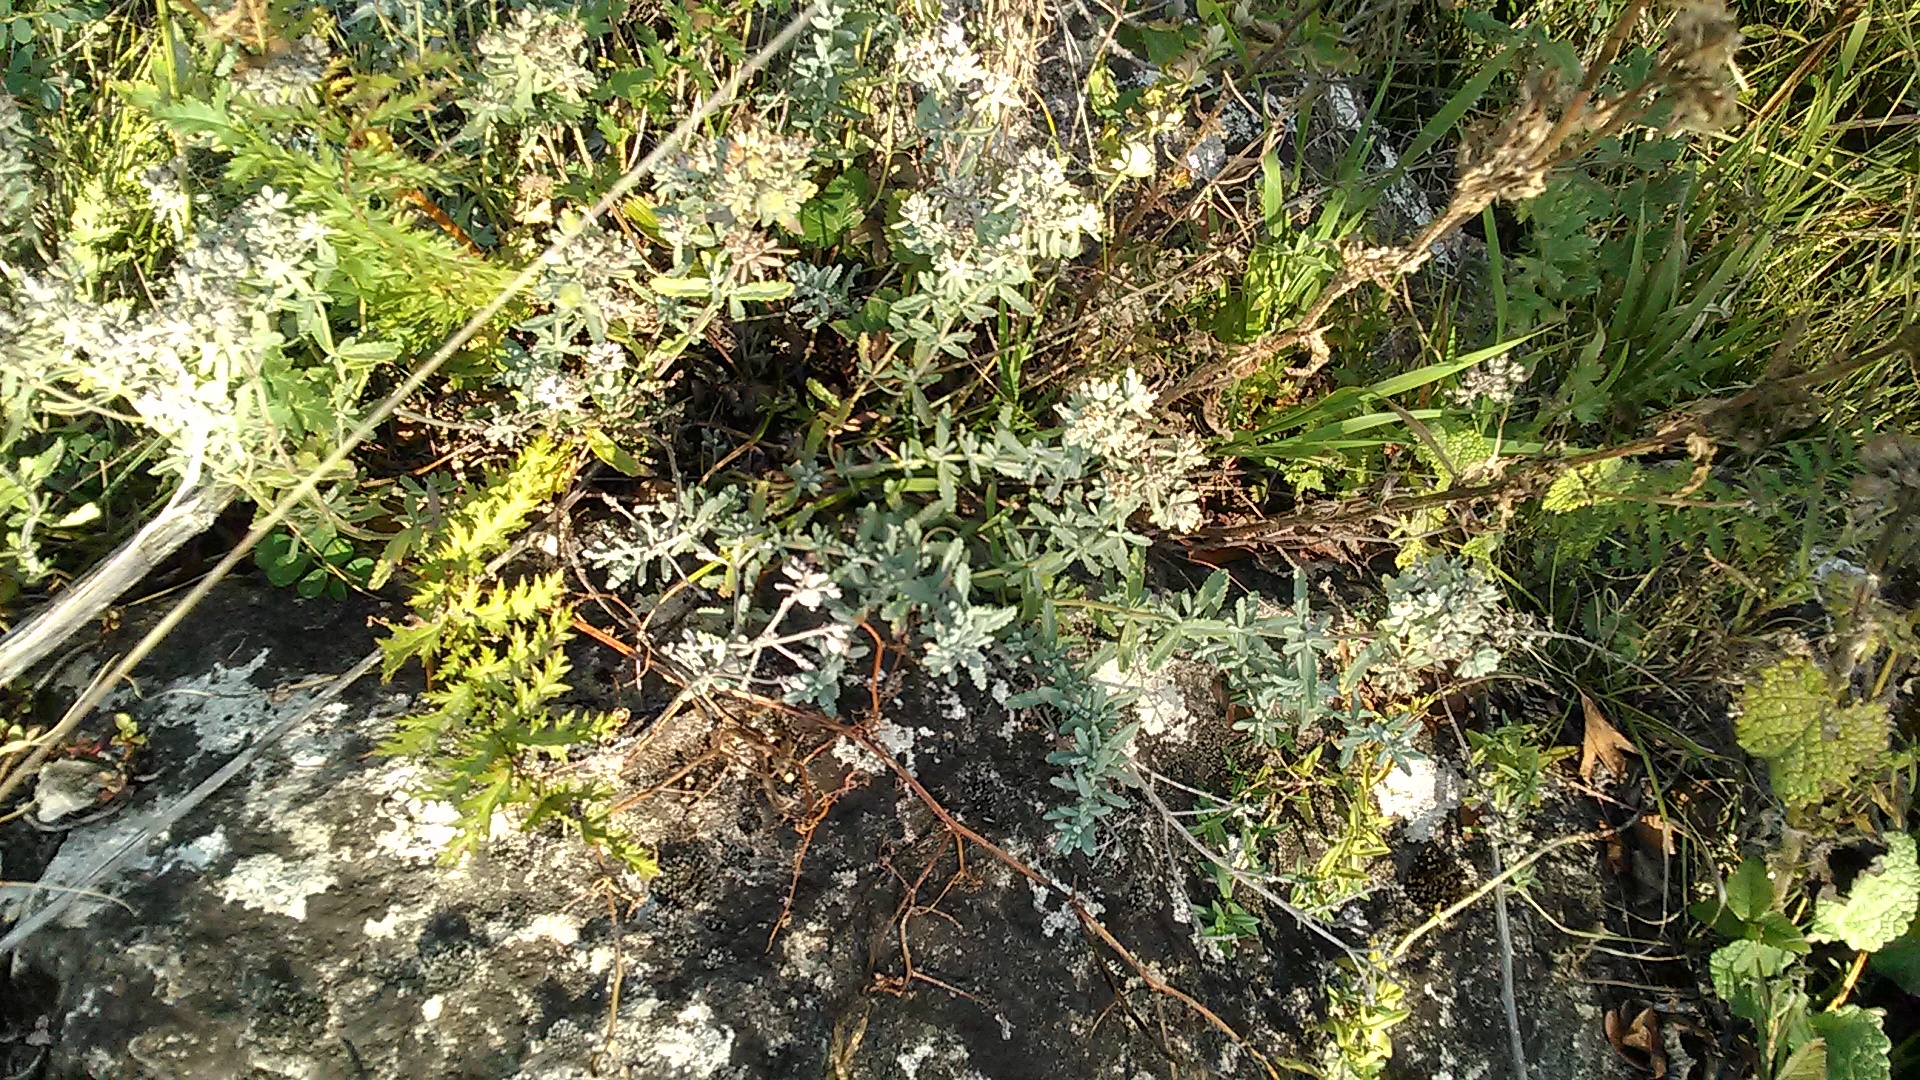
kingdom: Plantae
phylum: Tracheophyta
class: Magnoliopsida
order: Lamiales
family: Lamiaceae
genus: Teucrium
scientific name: Teucrium polium
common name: Poley
